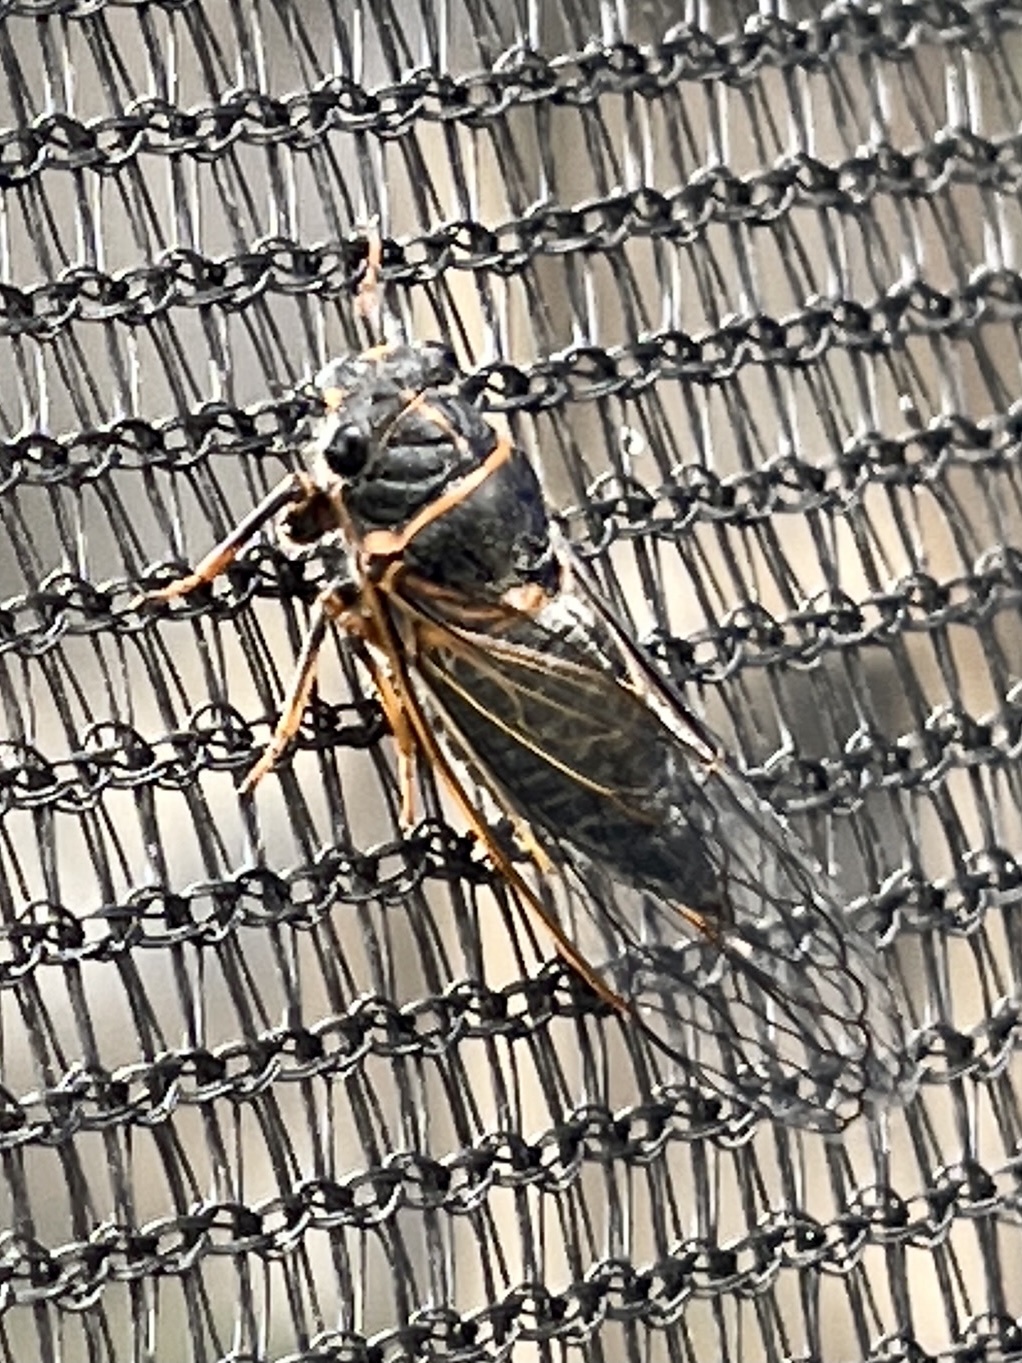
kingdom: Animalia
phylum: Arthropoda
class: Insecta
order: Hemiptera
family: Cicadidae
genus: Platypedia
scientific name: Platypedia putnami
